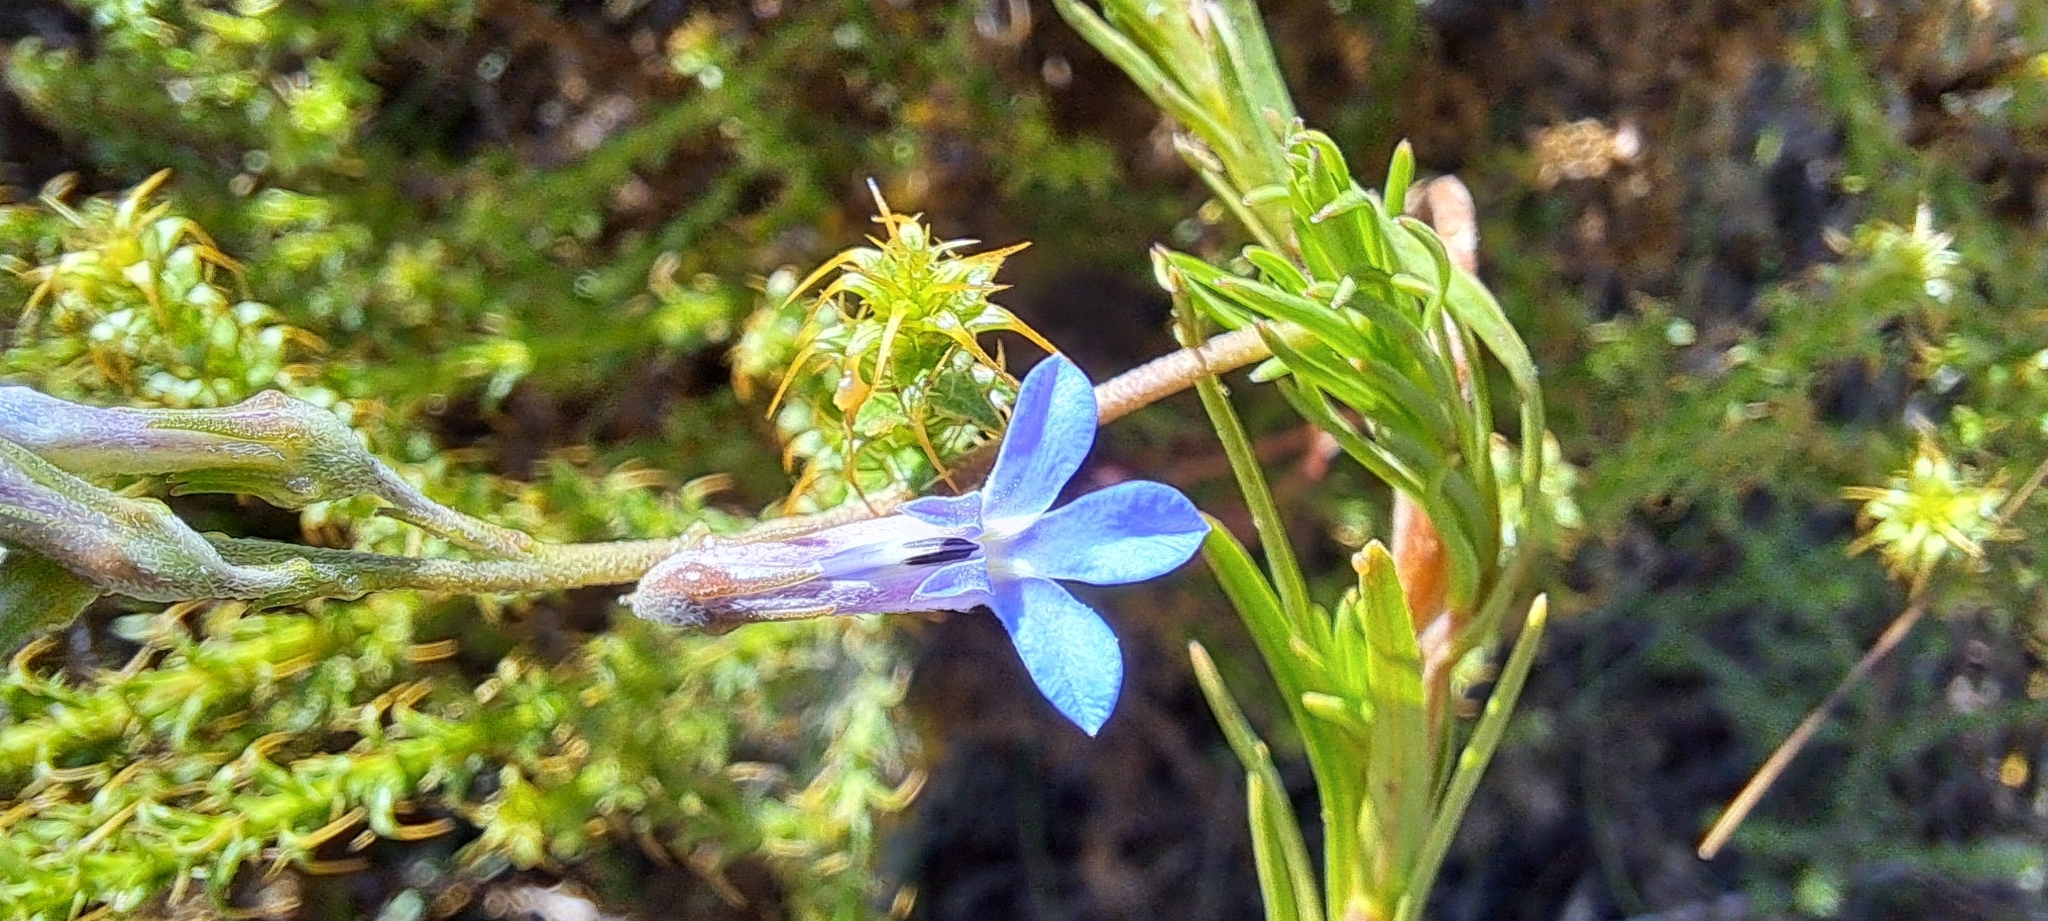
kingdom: Plantae
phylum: Tracheophyta
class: Magnoliopsida
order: Asterales
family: Campanulaceae
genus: Lobelia
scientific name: Lobelia pinifolia
